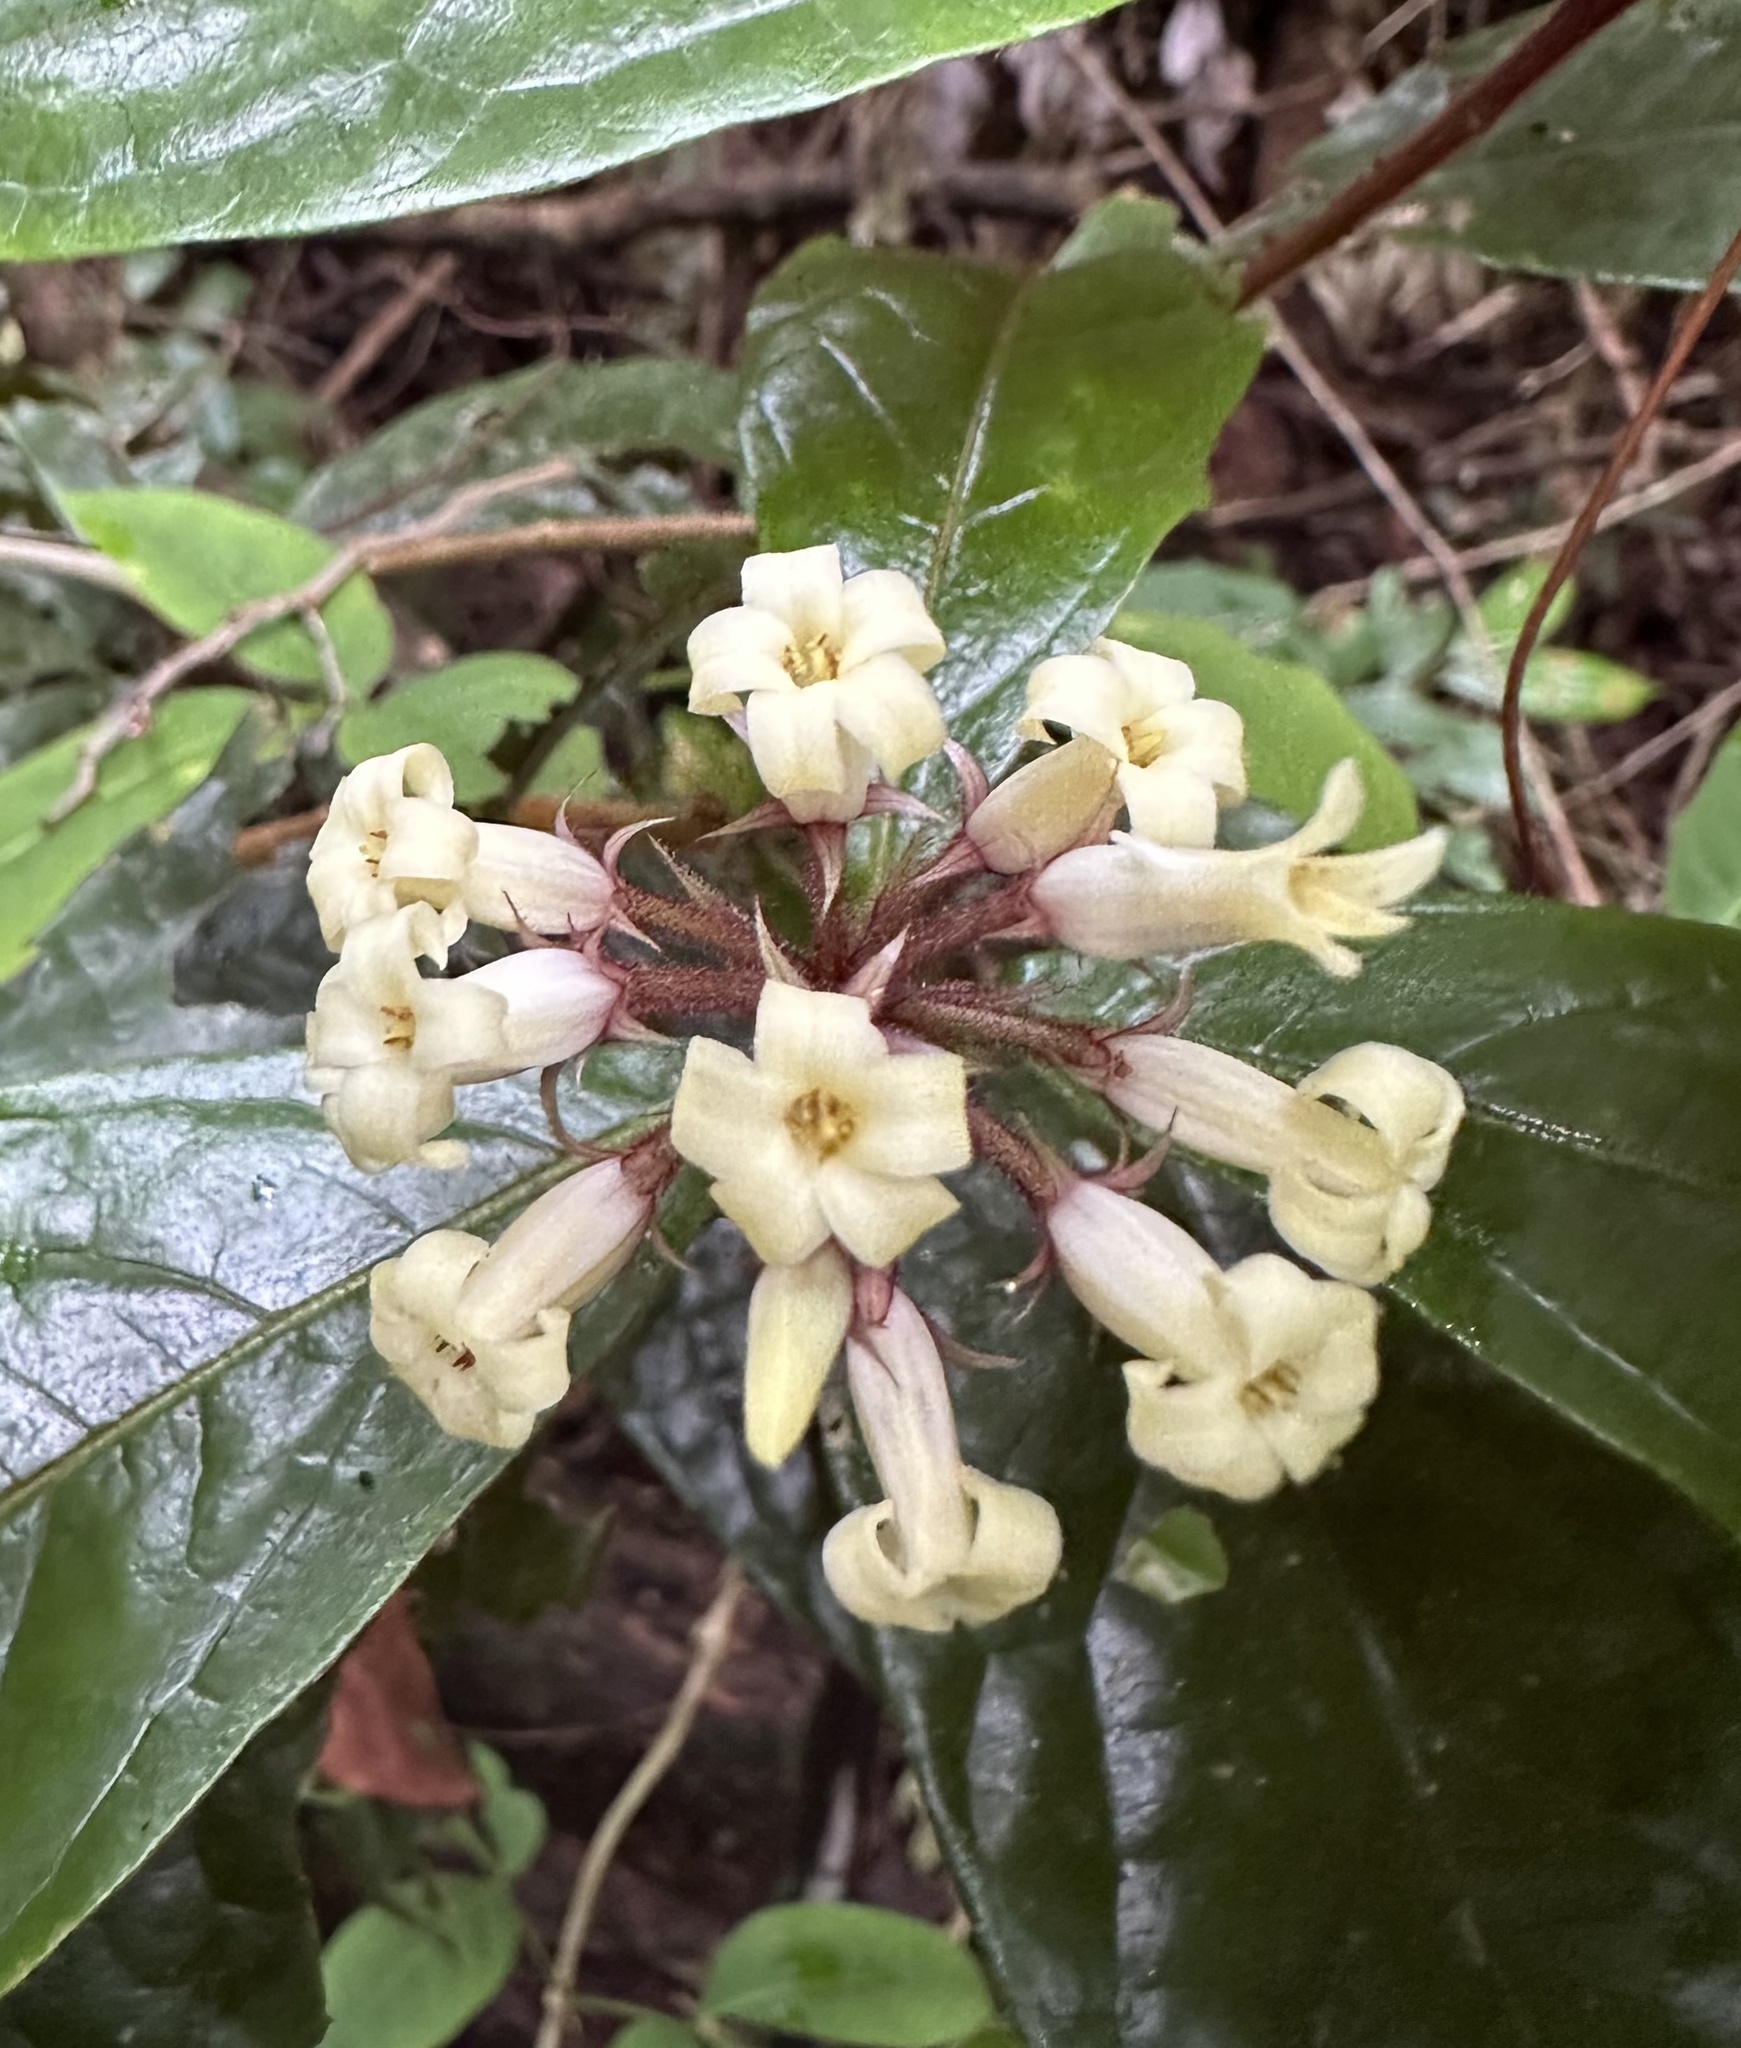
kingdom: Plantae
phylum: Tracheophyta
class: Magnoliopsida
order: Apiales
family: Pittosporaceae
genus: Pittosporum
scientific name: Pittosporum rubiginosum
